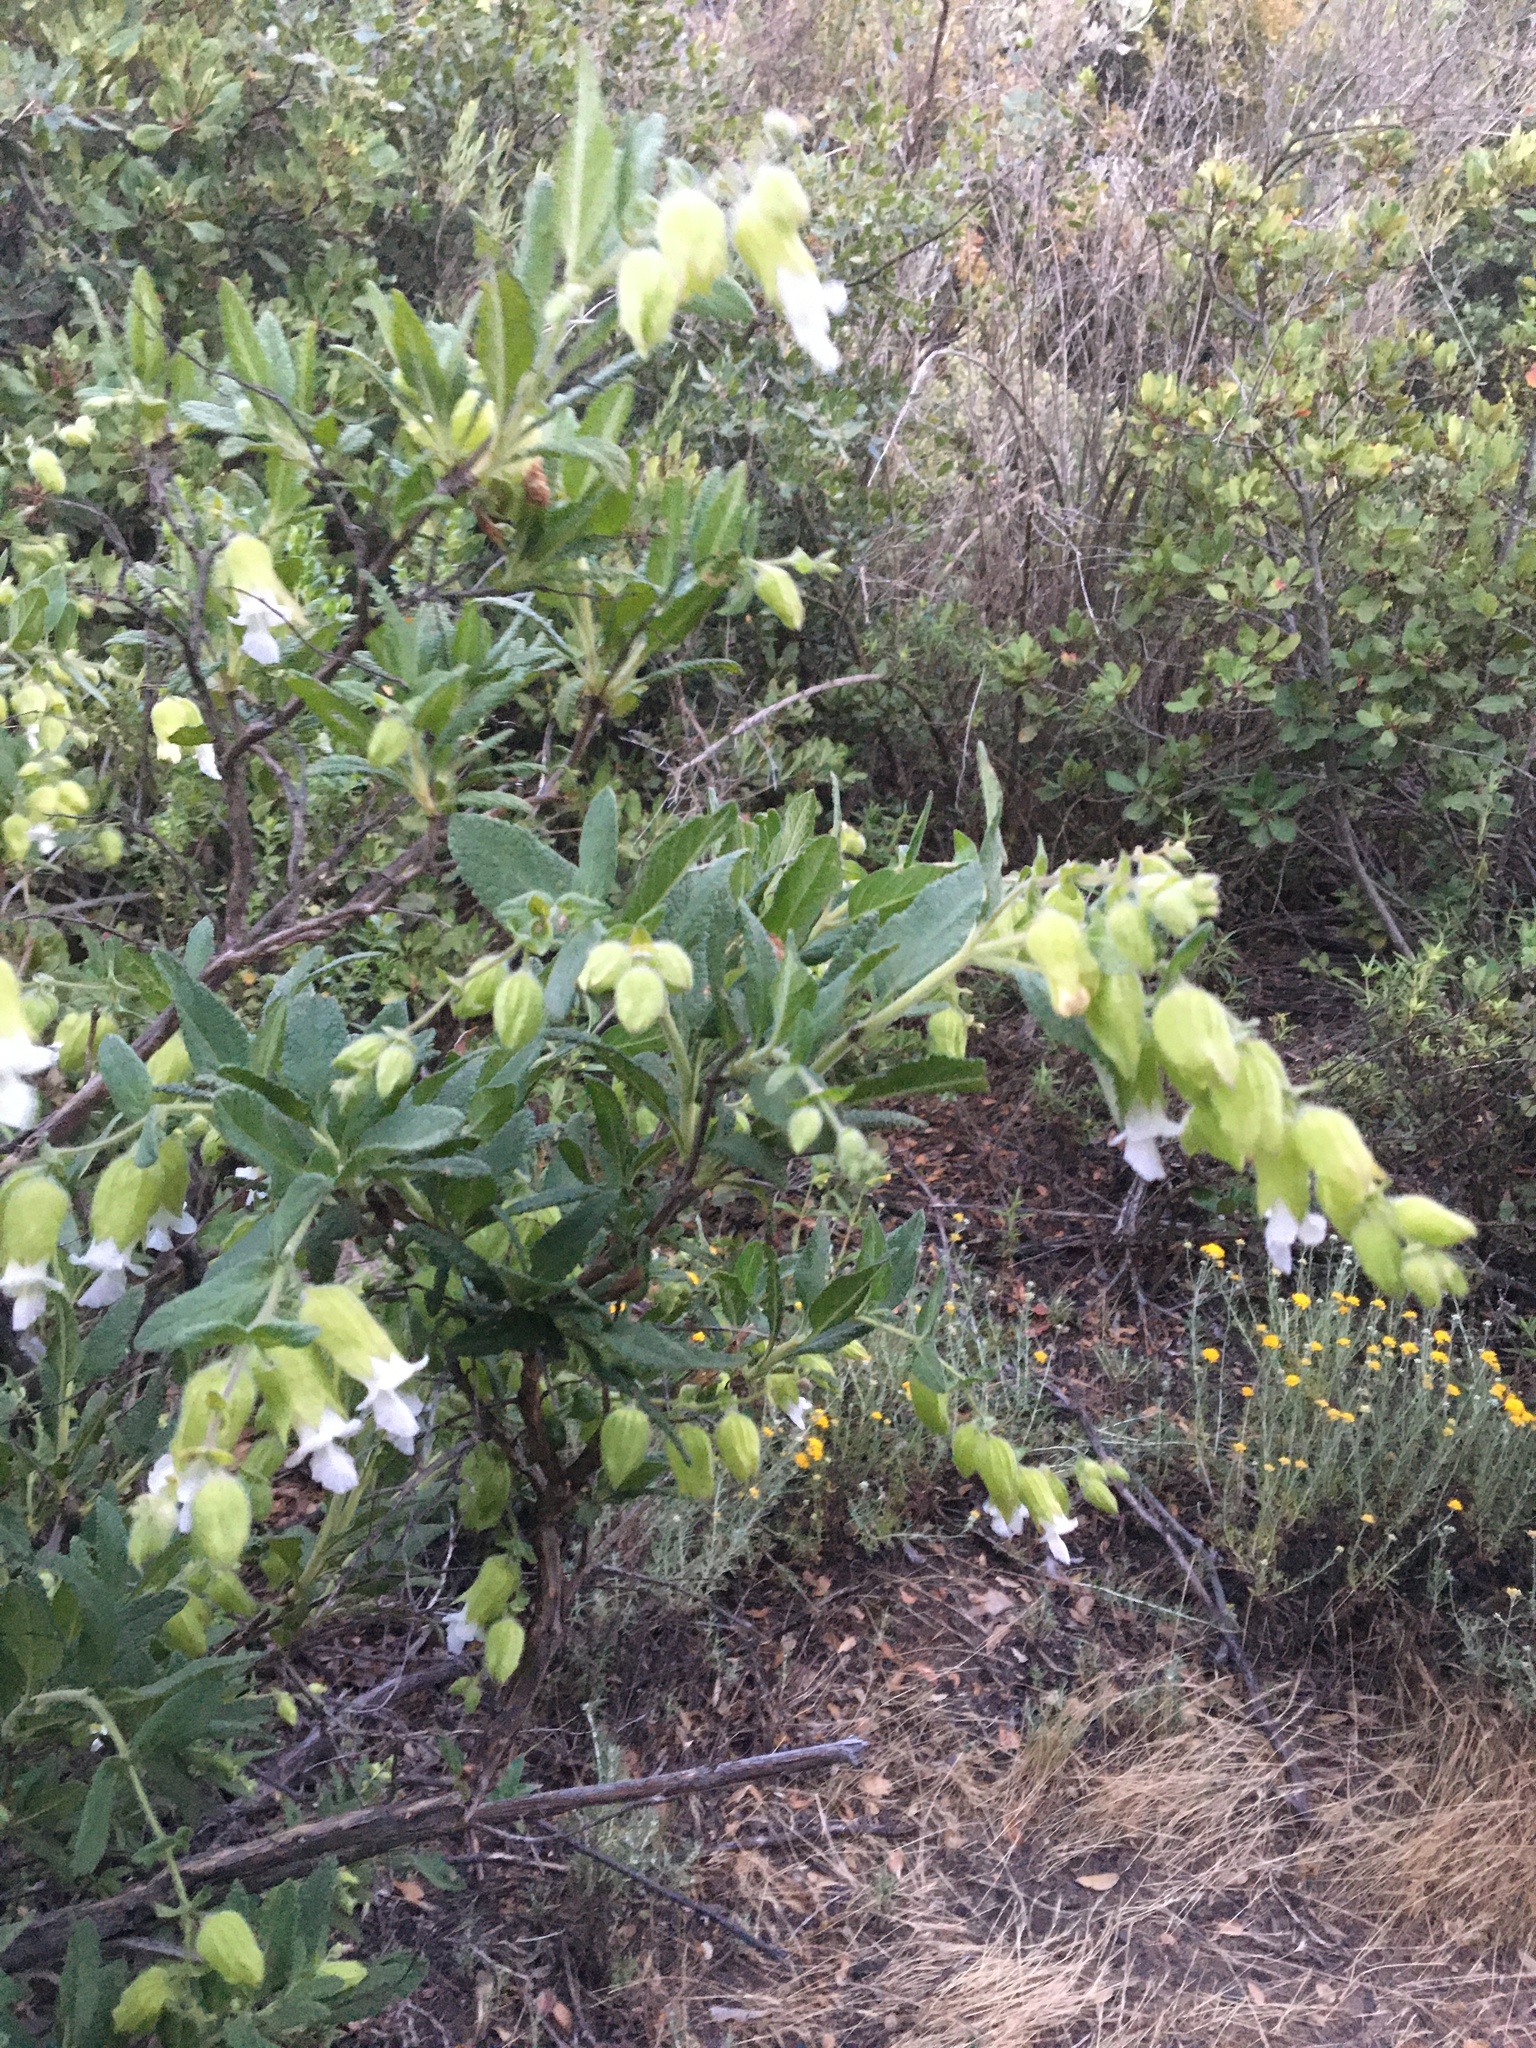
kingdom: Plantae
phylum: Tracheophyta
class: Magnoliopsida
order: Lamiales
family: Lamiaceae
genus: Lepechinia
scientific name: Lepechinia calycina
